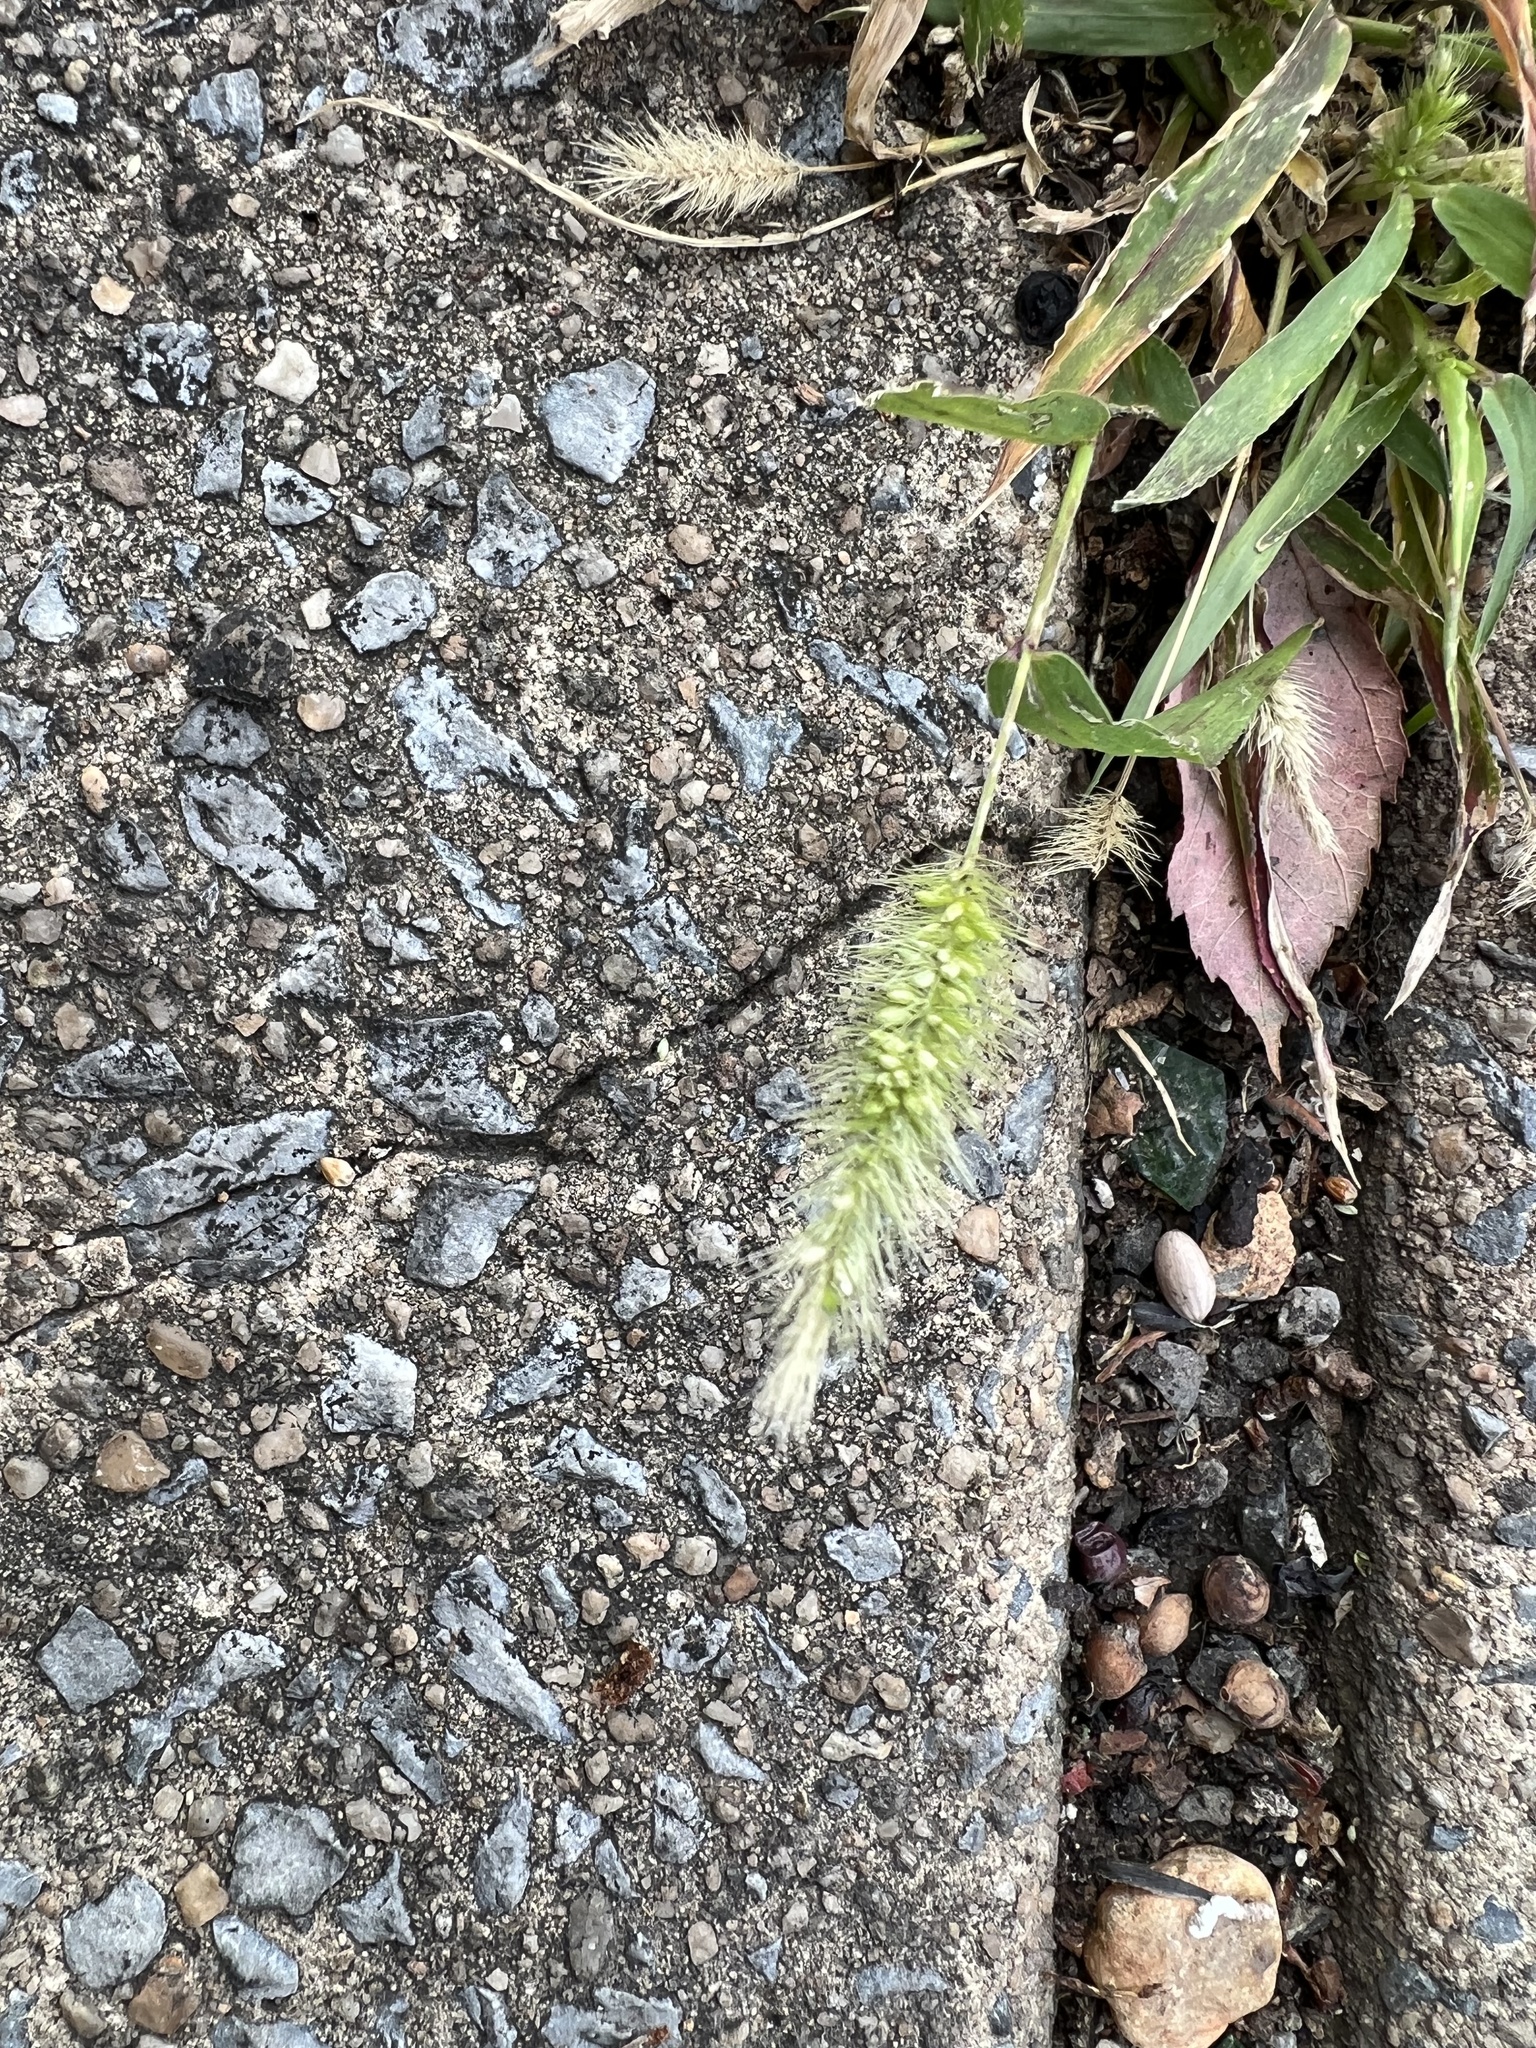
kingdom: Plantae
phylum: Tracheophyta
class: Liliopsida
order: Poales
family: Poaceae
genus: Setaria
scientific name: Setaria viridis
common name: Green bristlegrass
